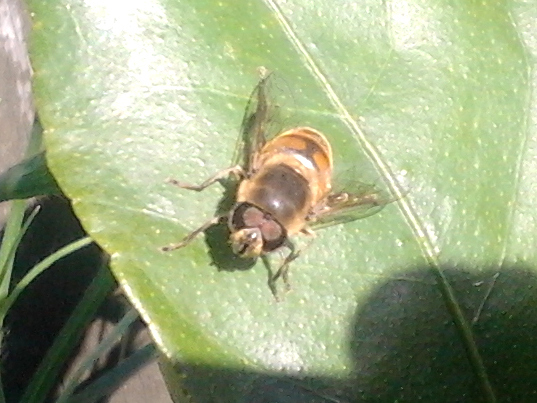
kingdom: Animalia
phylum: Arthropoda
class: Insecta
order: Diptera
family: Syrphidae
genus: Eristalis
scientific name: Eristalis tenax
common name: Drone fly
